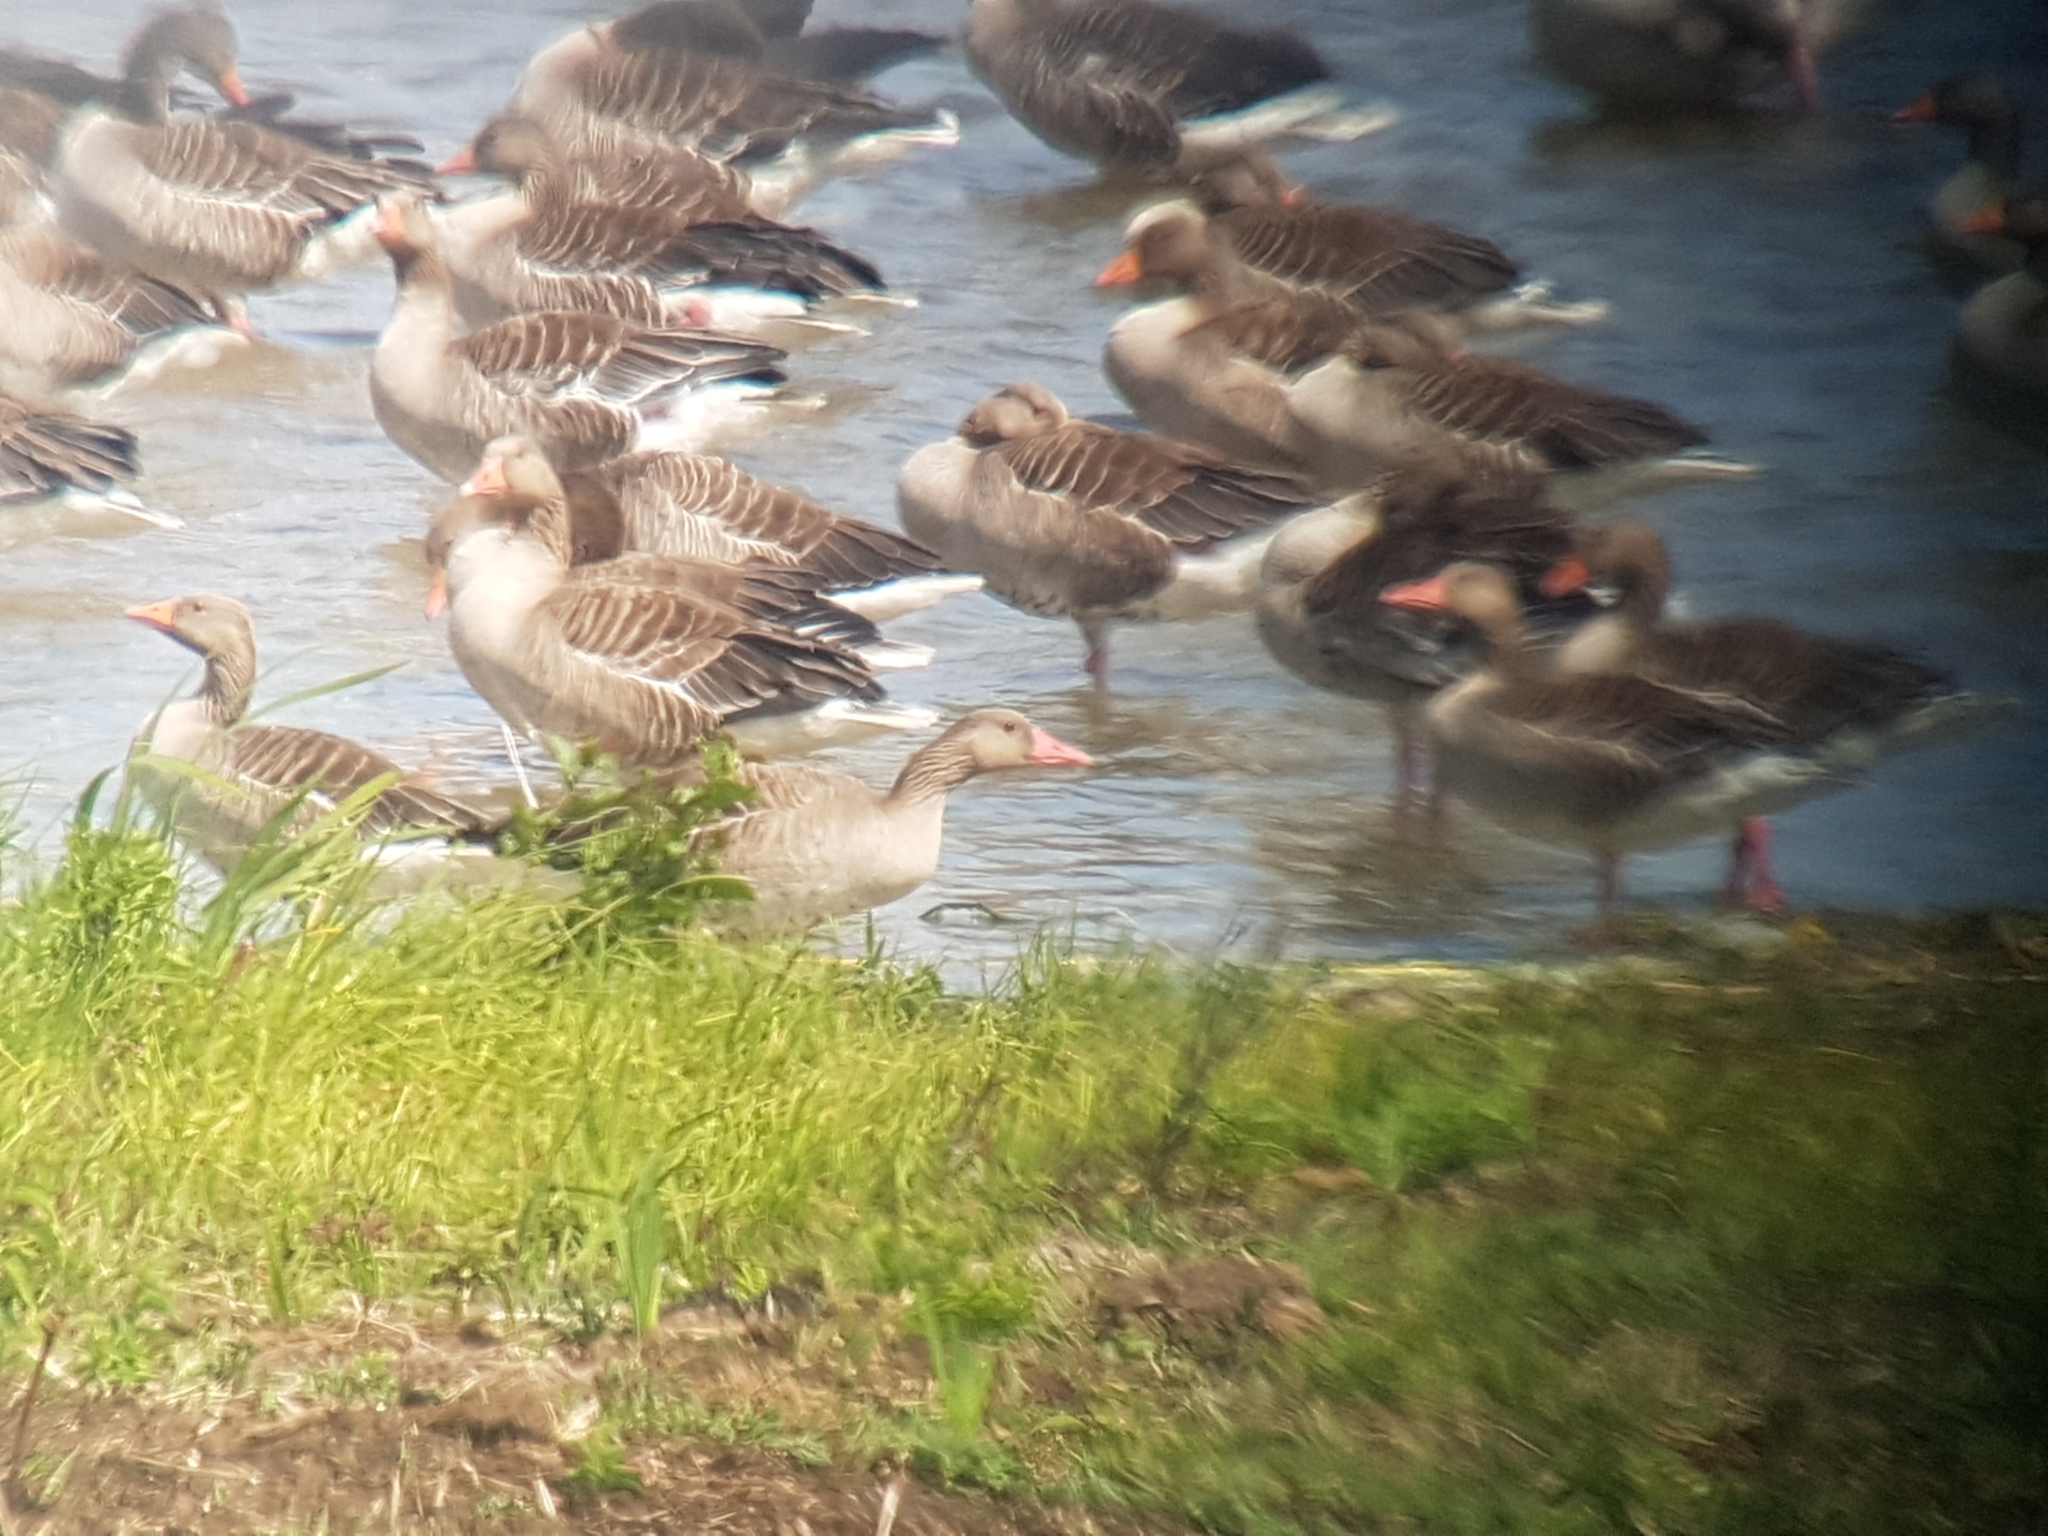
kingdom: Animalia
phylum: Chordata
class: Aves
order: Anseriformes
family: Anatidae
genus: Anser
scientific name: Anser anser
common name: Greylag goose
